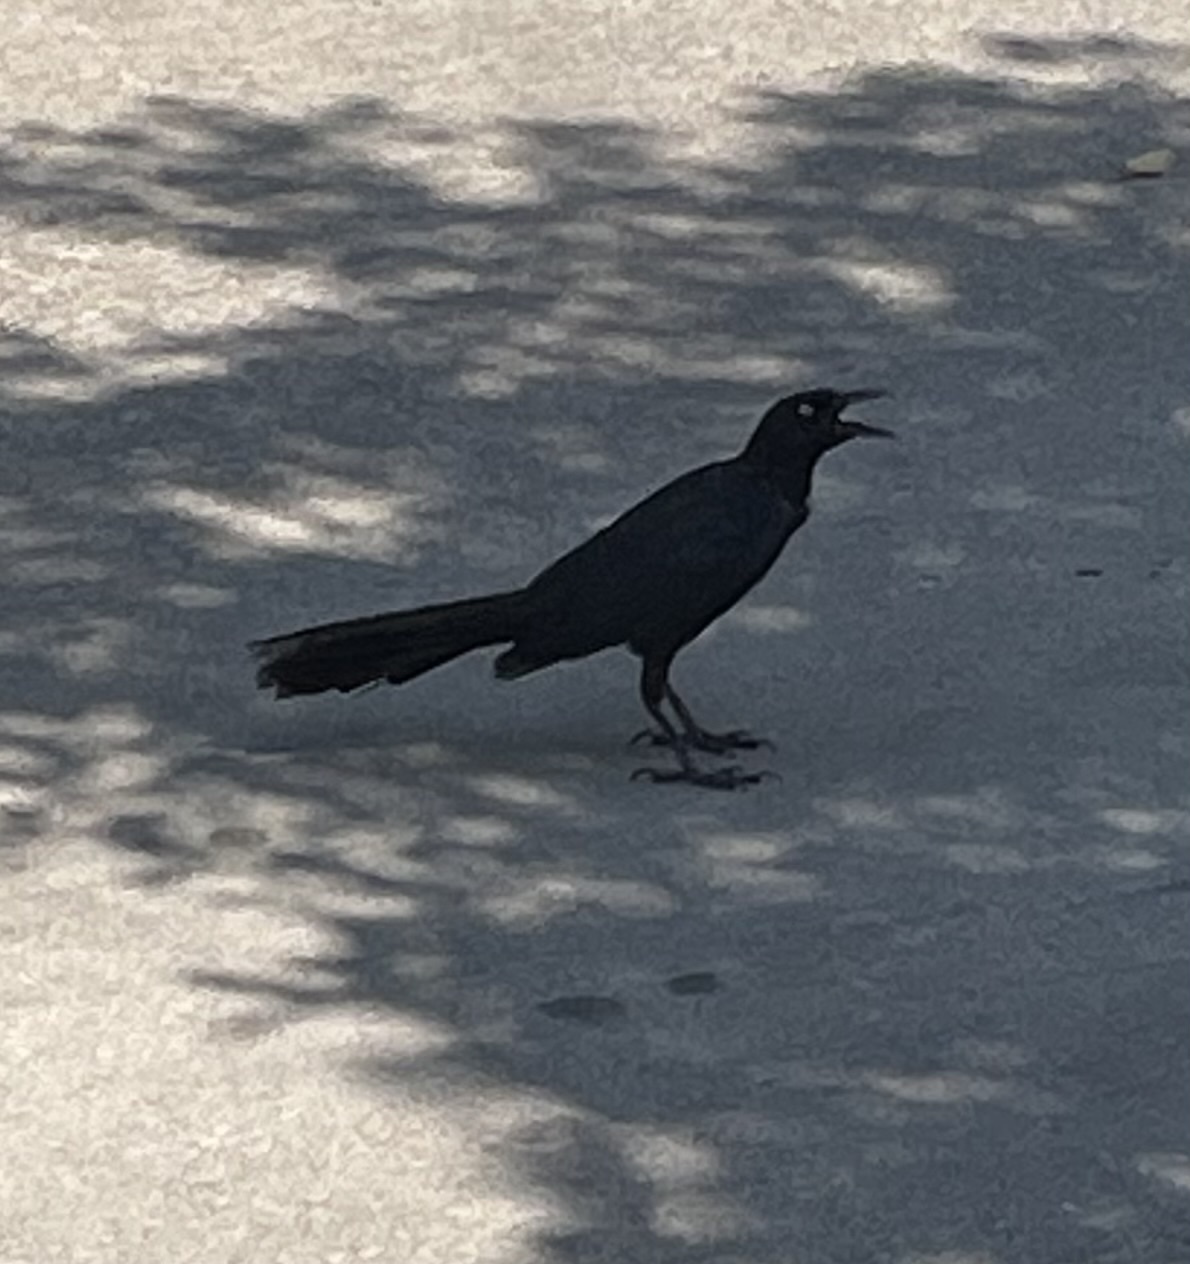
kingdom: Animalia
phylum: Chordata
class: Aves
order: Passeriformes
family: Icteridae
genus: Quiscalus
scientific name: Quiscalus mexicanus
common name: Great-tailed grackle
